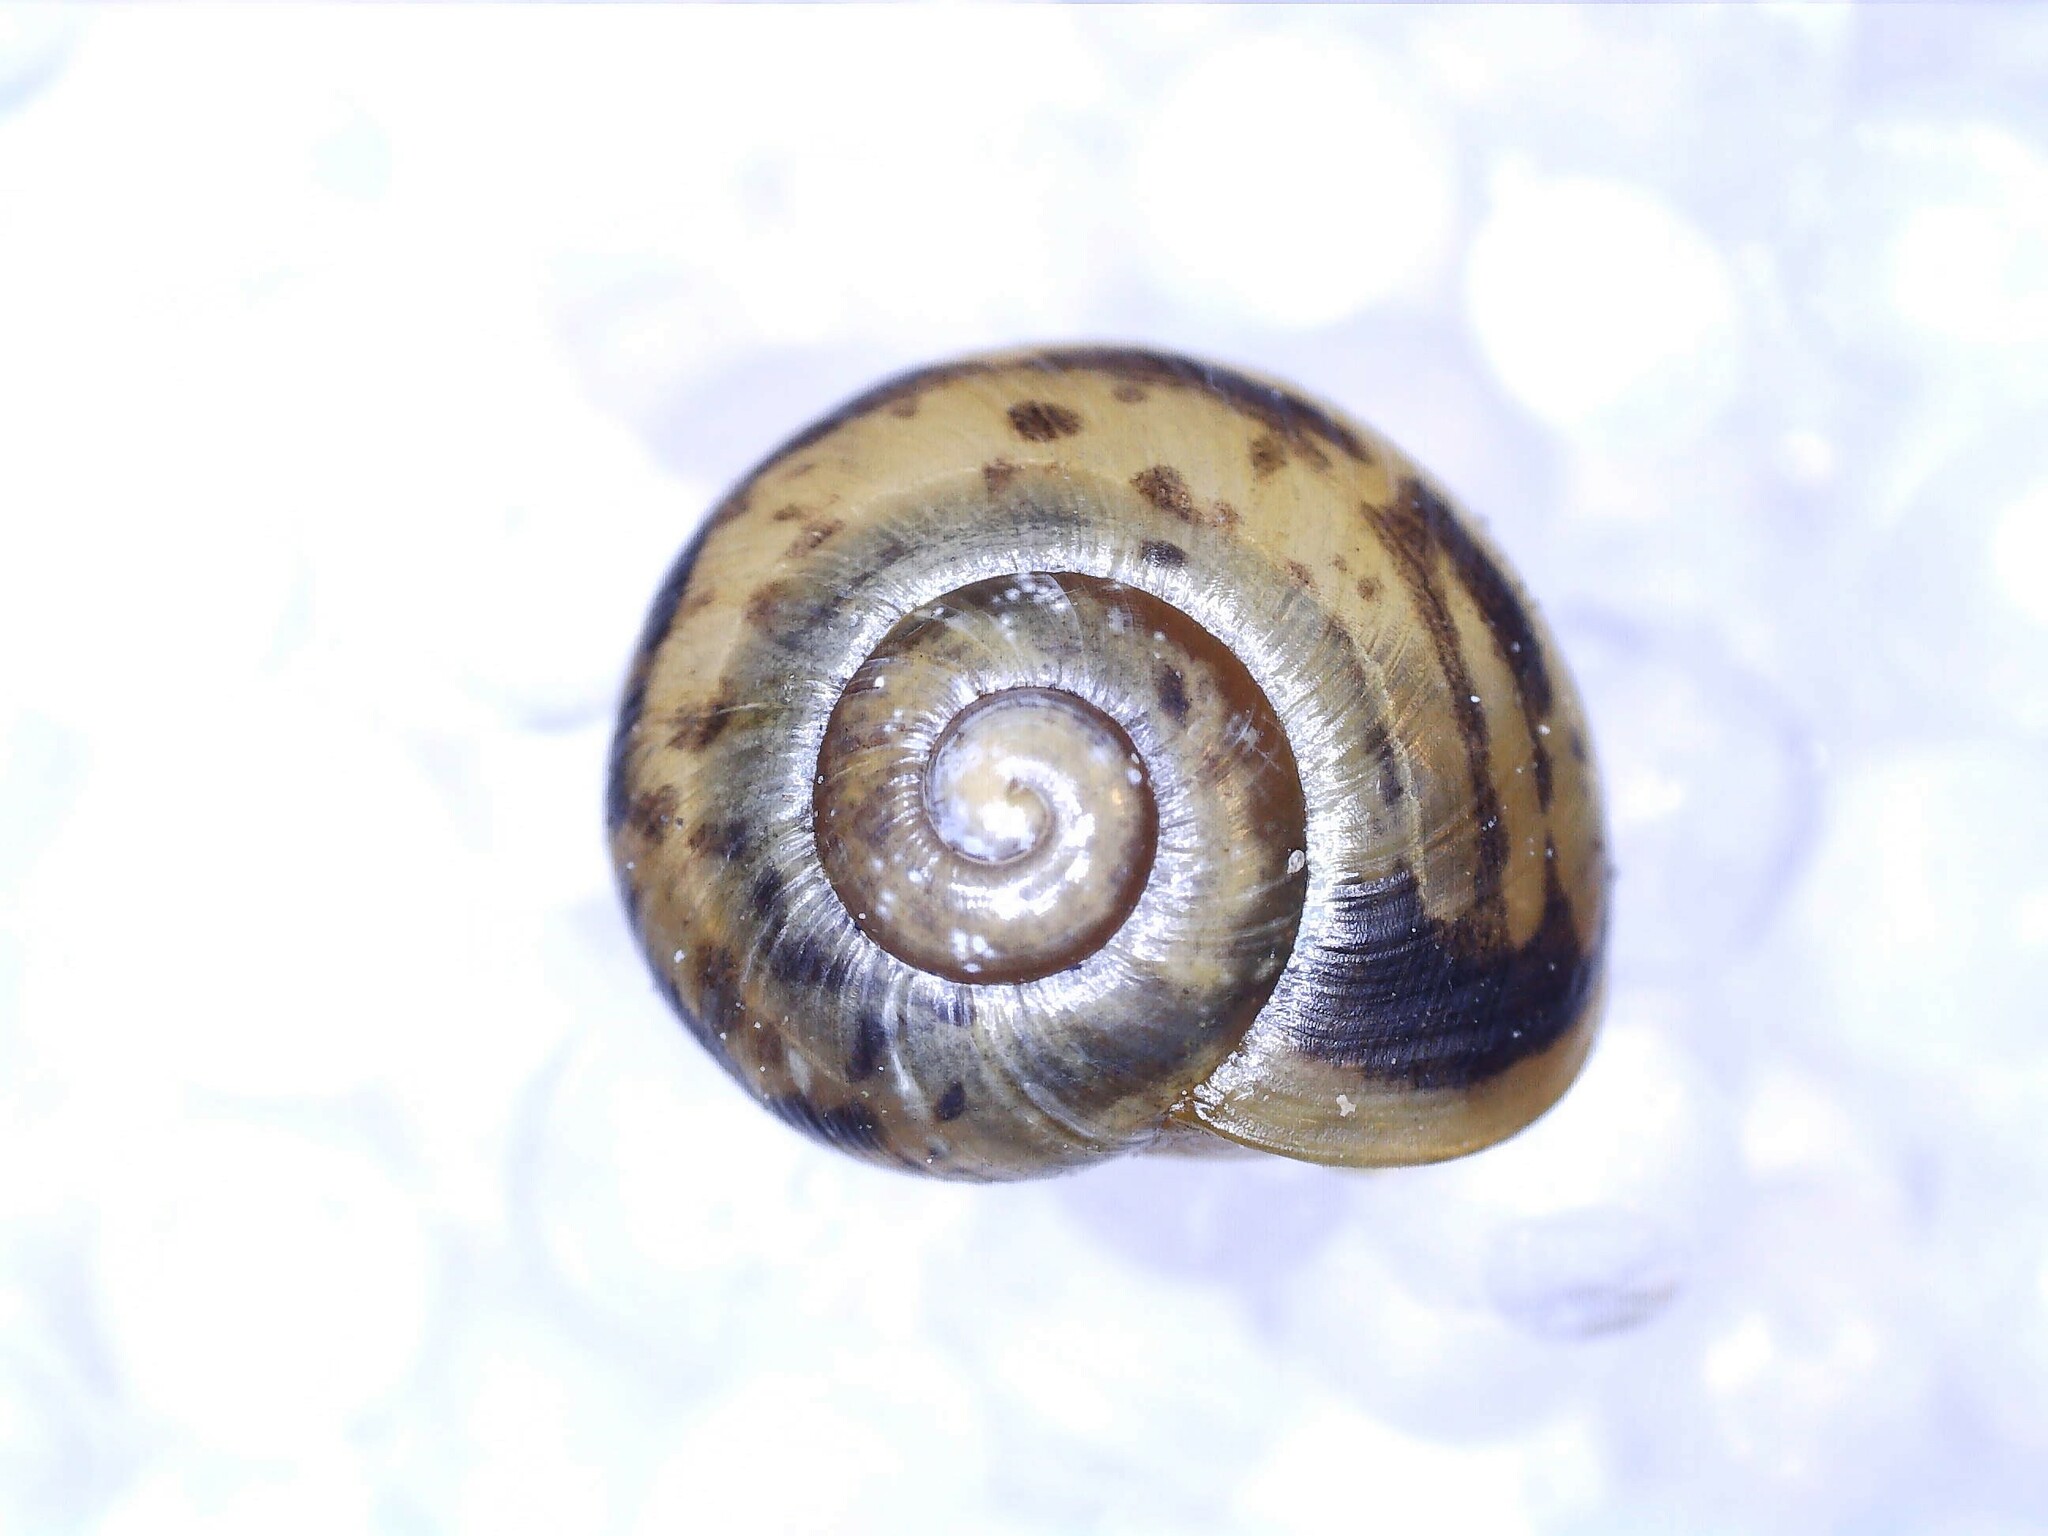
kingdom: Animalia
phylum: Mollusca
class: Gastropoda
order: Stylommatophora
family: Camaenidae
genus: Fruticicola
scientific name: Fruticicola fruticum
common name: Bush snail
